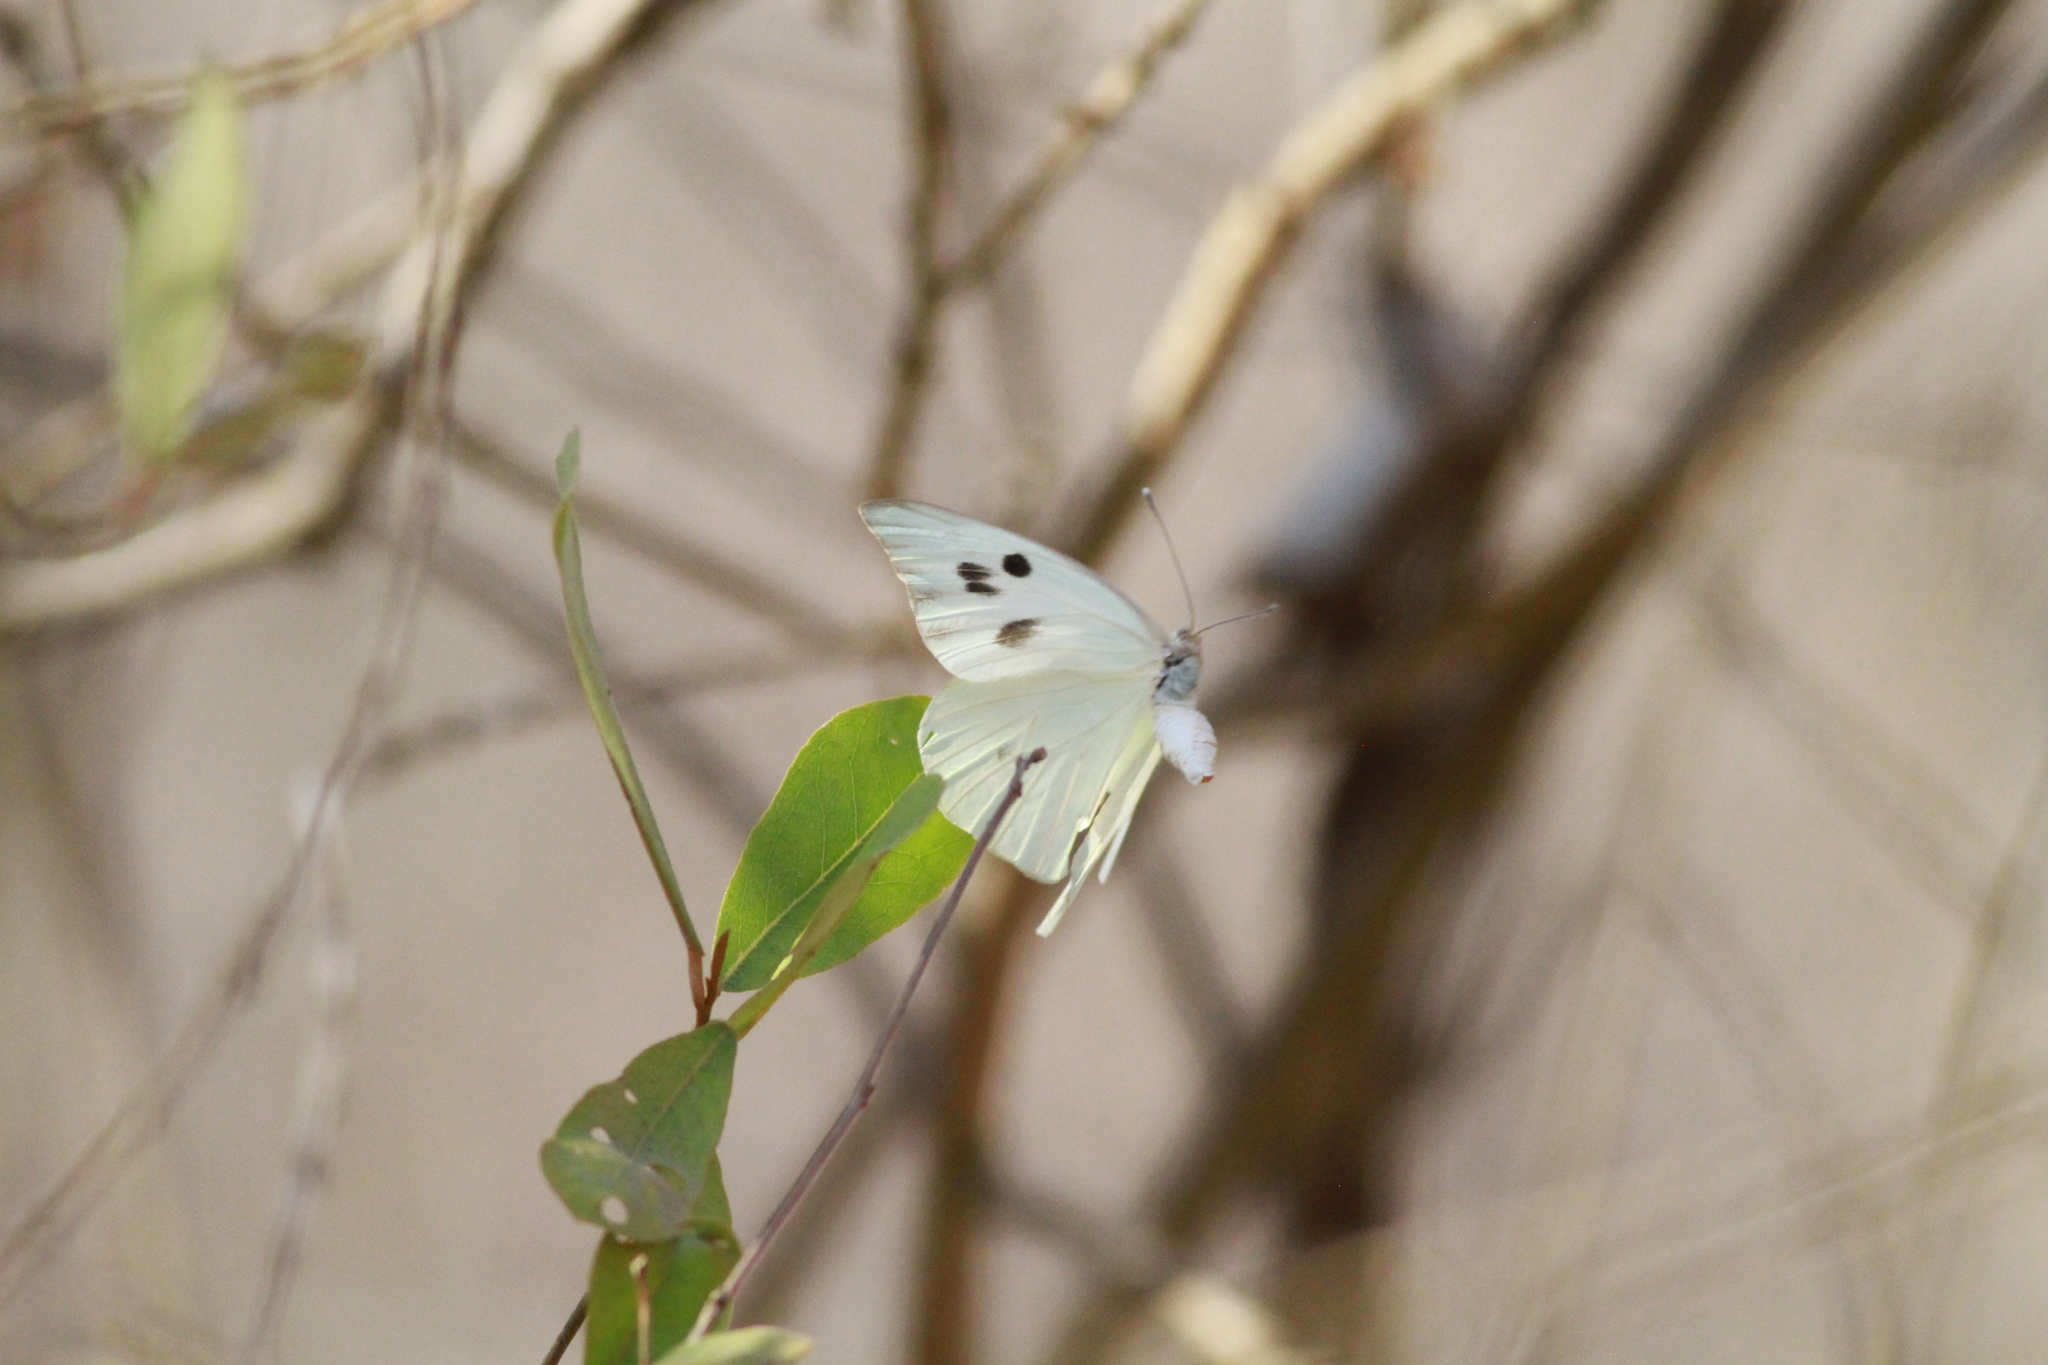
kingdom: Animalia
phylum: Arthropoda
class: Insecta
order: Lepidoptera
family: Pieridae
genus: Ganyra
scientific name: Ganyra josephina
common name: Giant white
